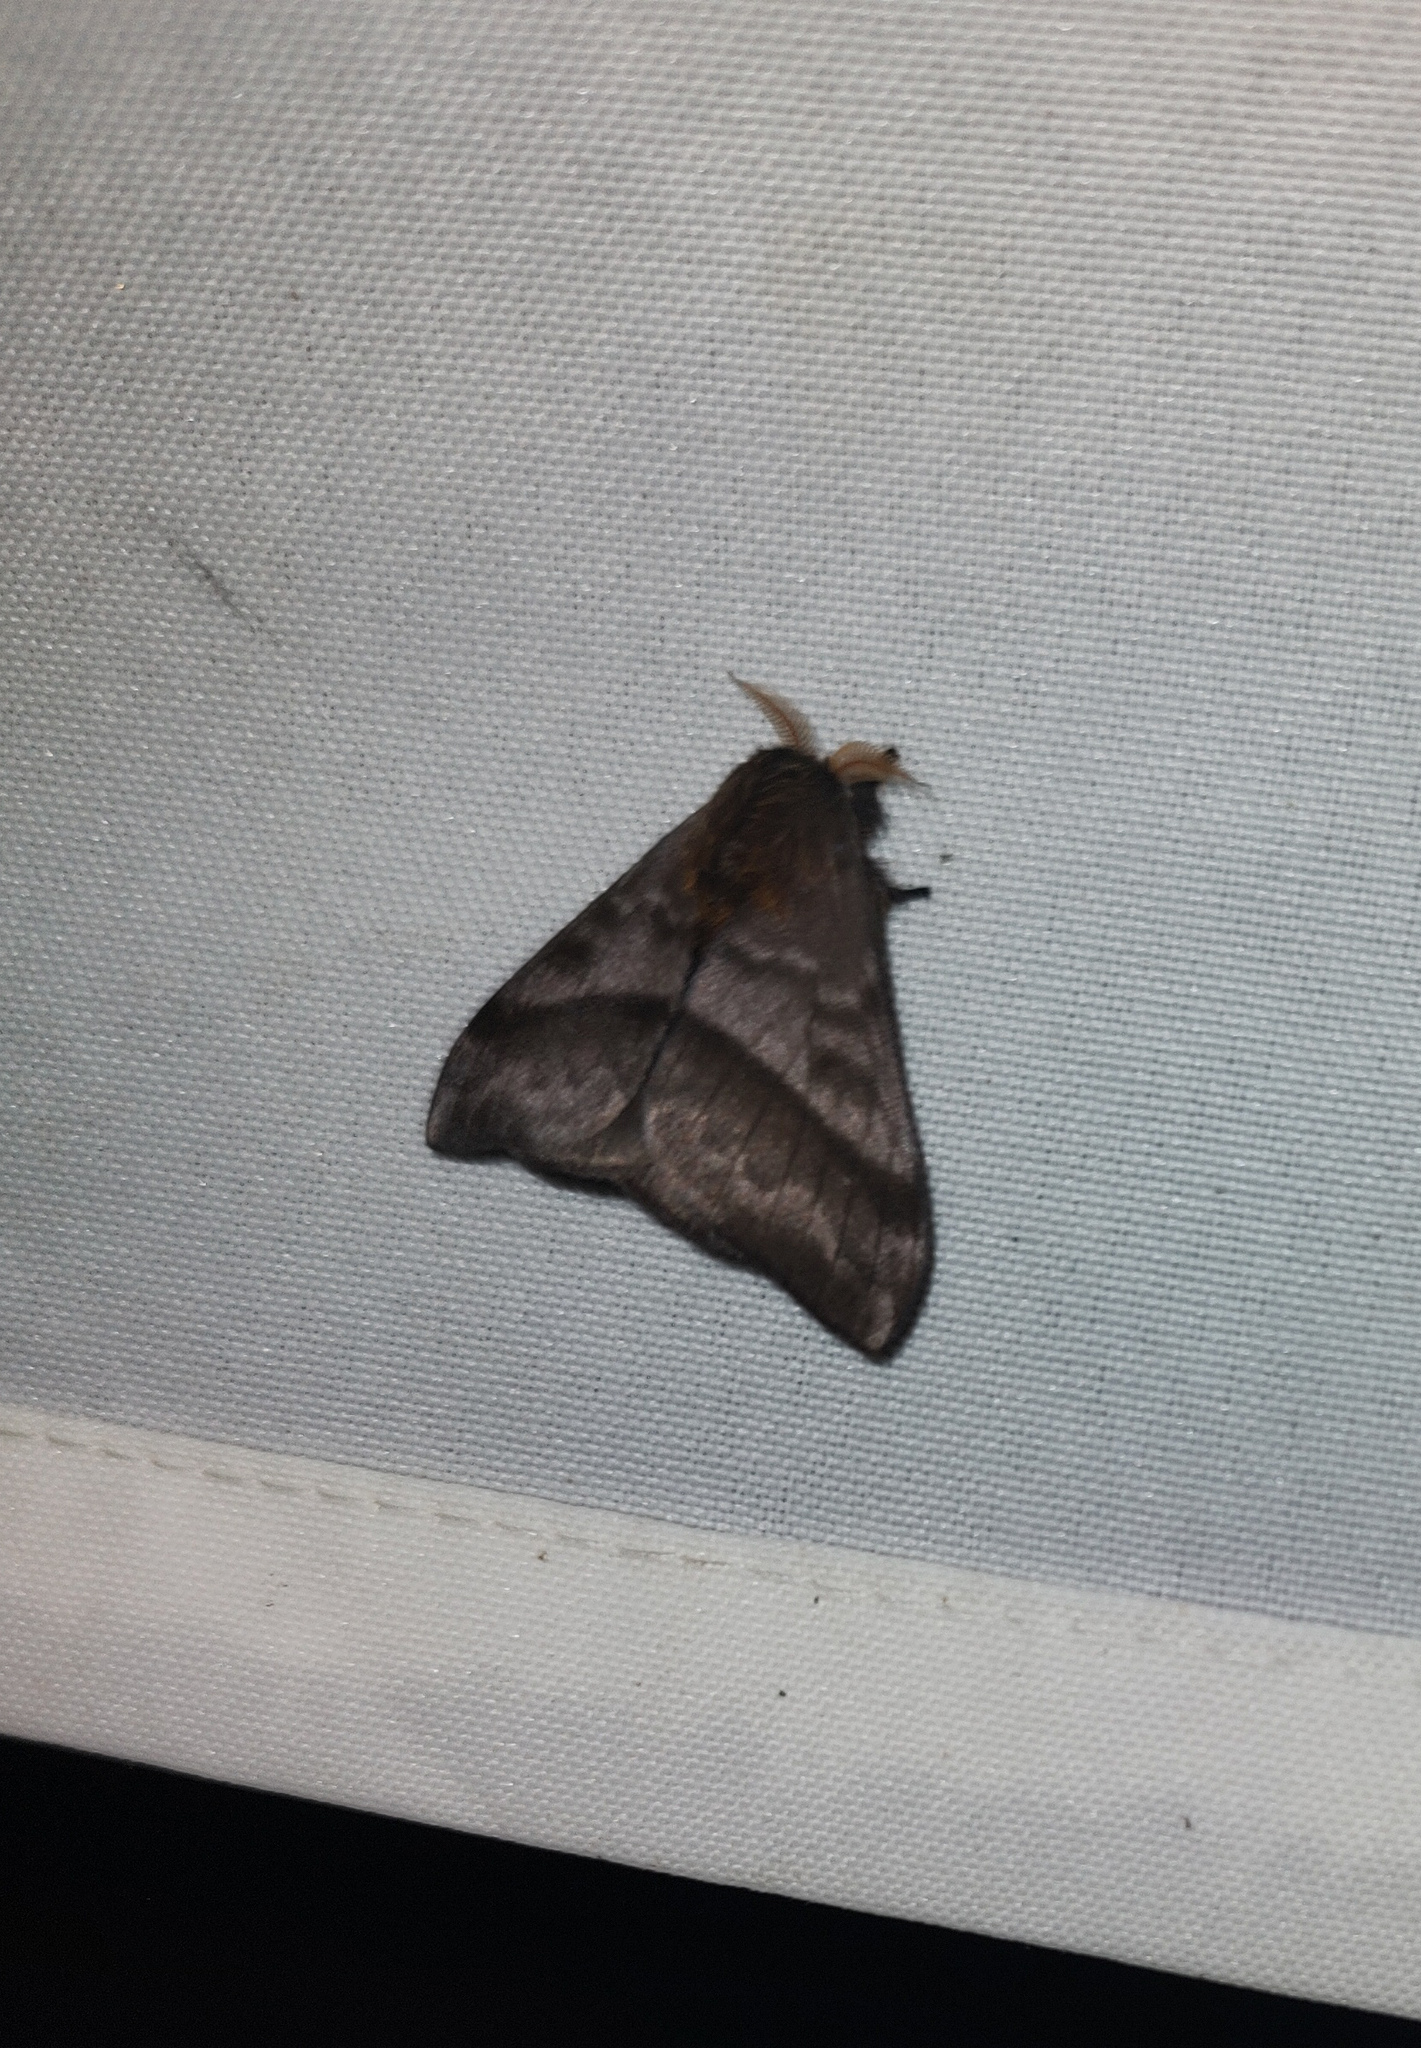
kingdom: Animalia
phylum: Arthropoda
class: Insecta
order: Lepidoptera
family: Saturniidae
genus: Hylesia
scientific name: Hylesia remex
